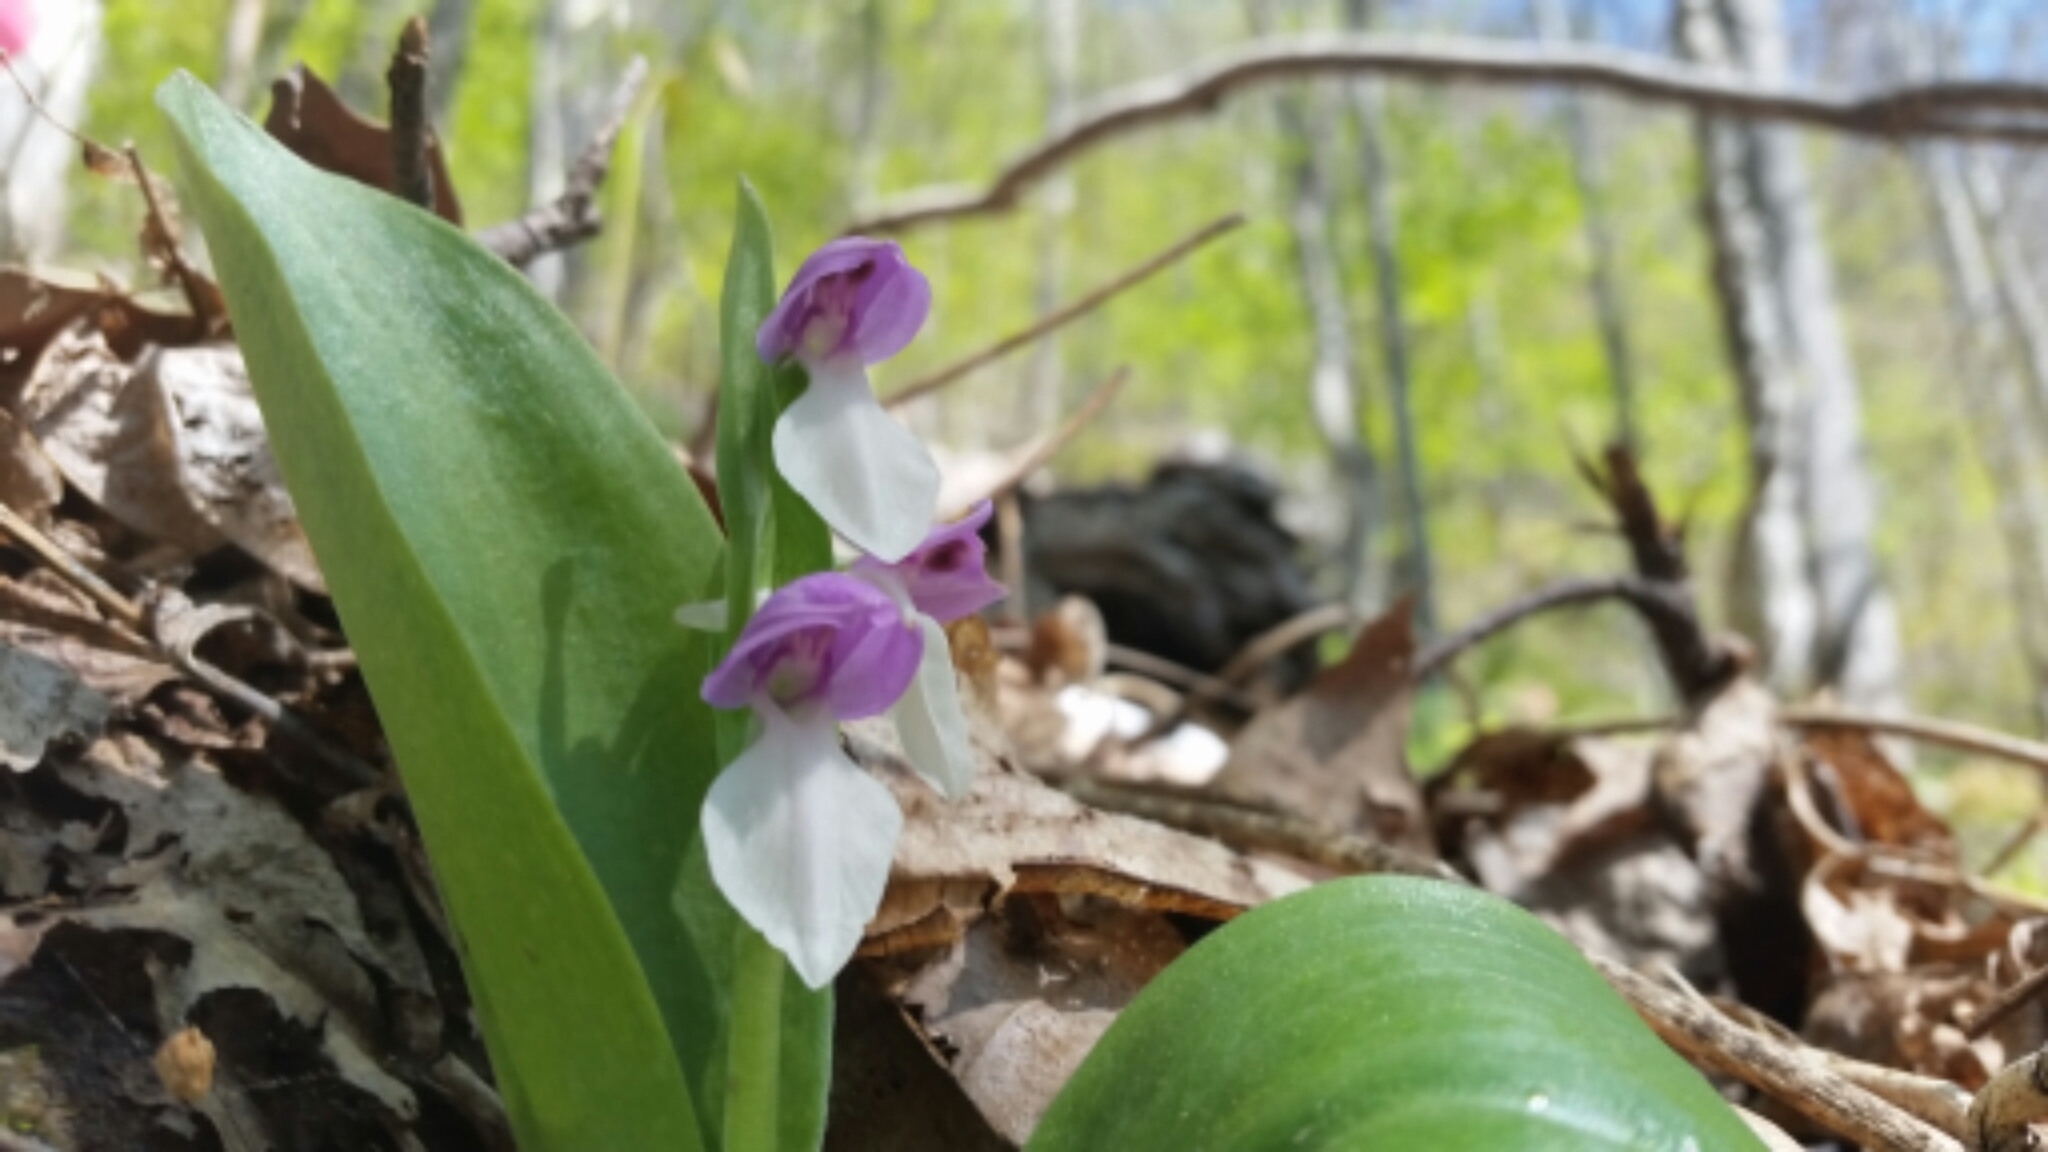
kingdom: Plantae
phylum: Tracheophyta
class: Liliopsida
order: Asparagales
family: Orchidaceae
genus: Galearis
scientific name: Galearis spectabilis
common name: Purple-hooded orchis
